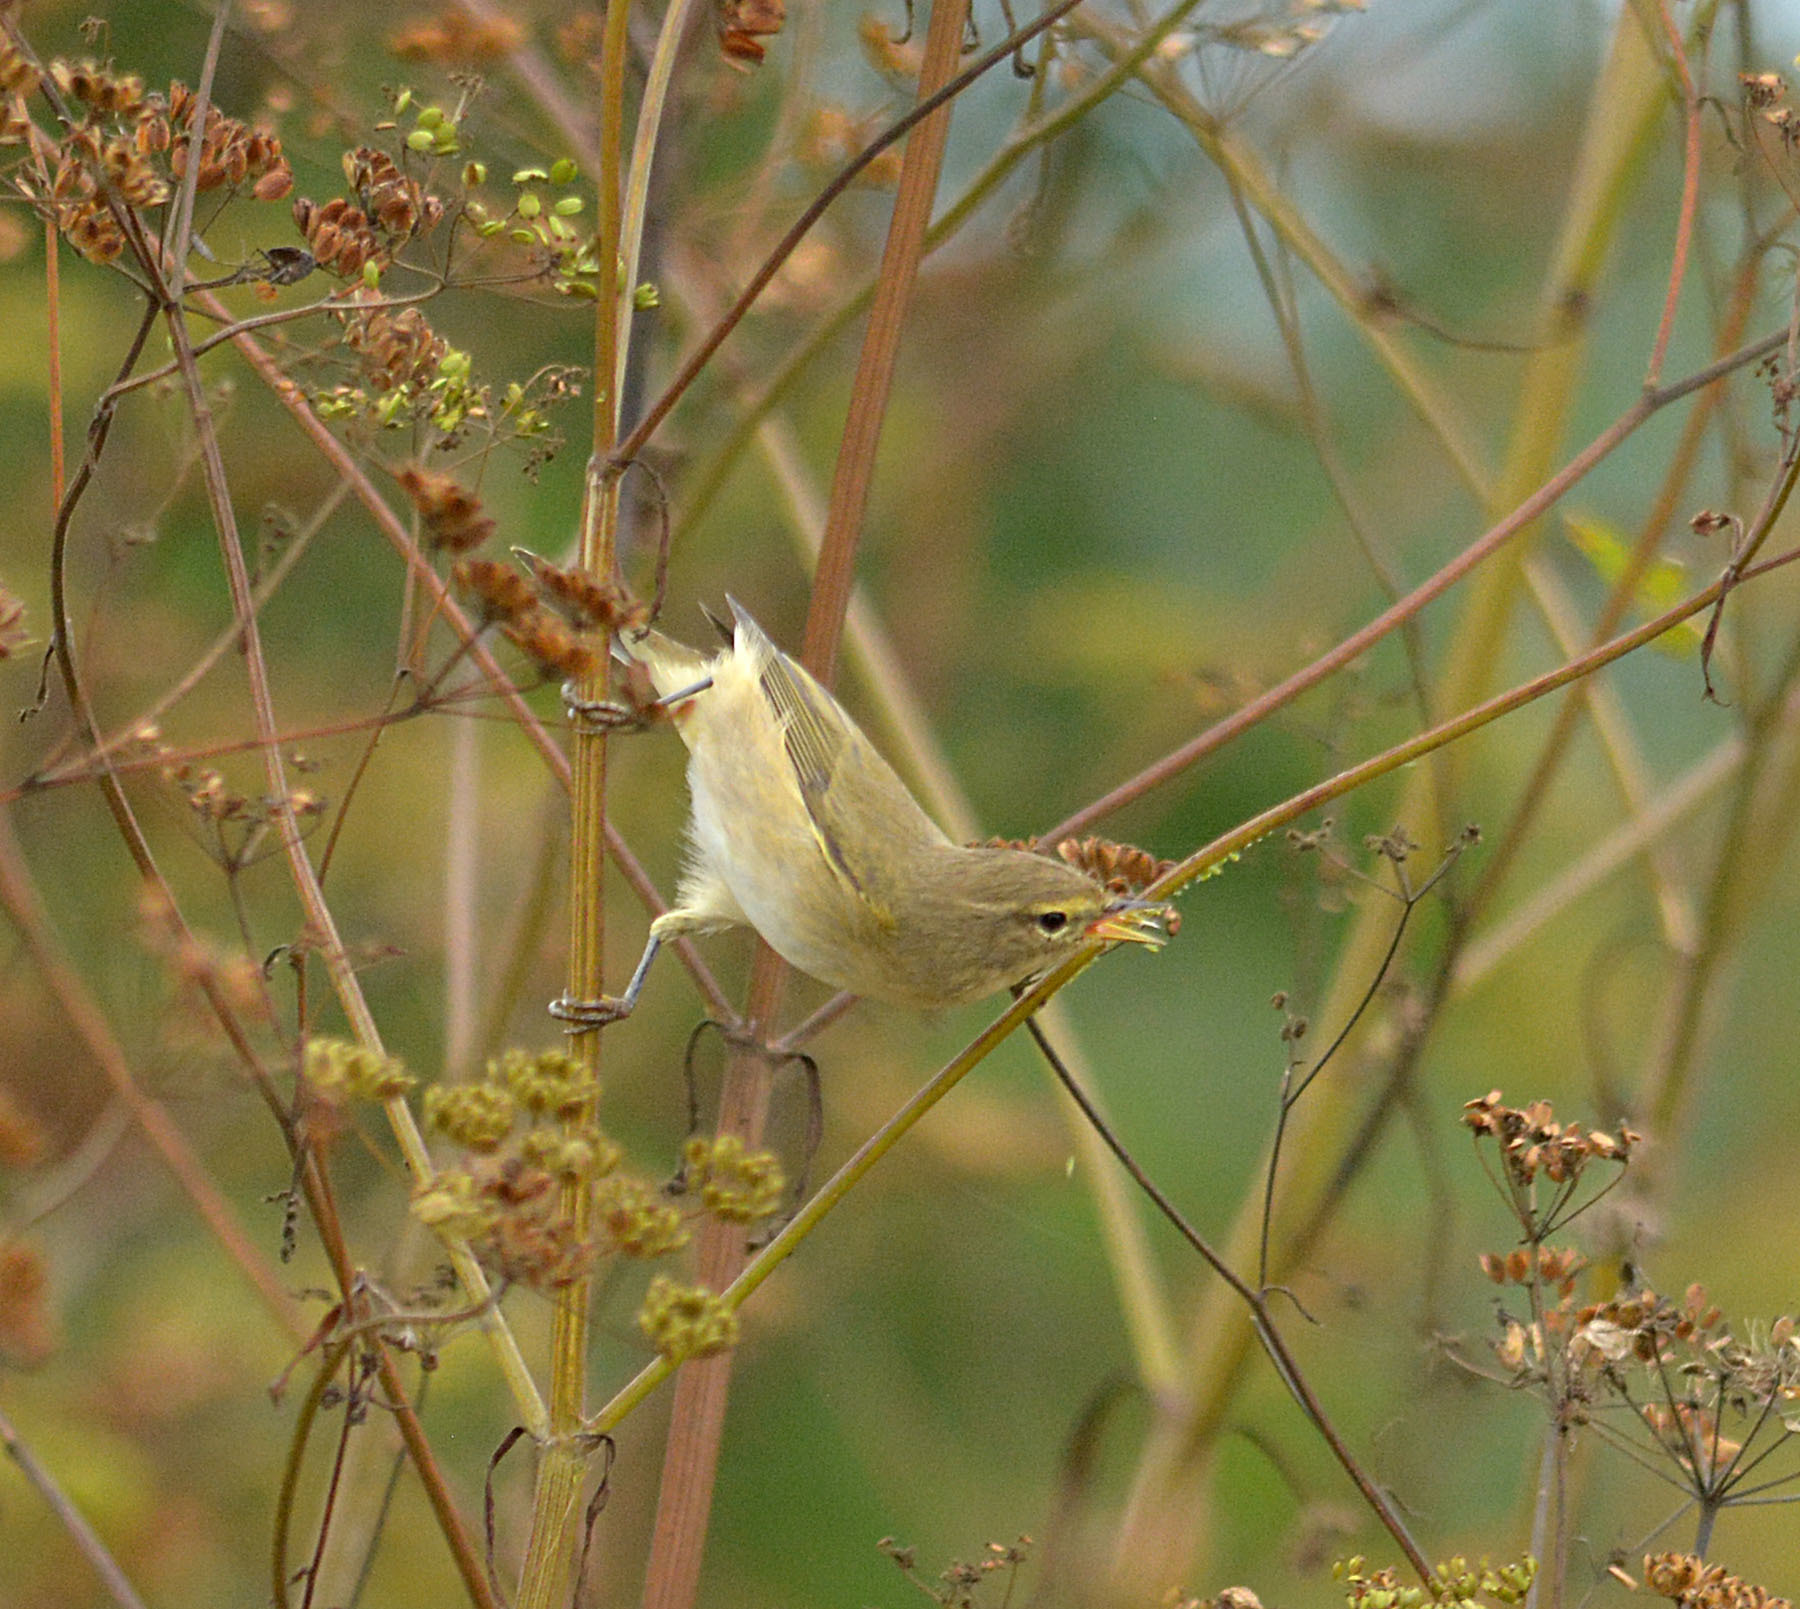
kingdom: Animalia
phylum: Chordata
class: Aves
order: Passeriformes
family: Phylloscopidae
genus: Phylloscopus
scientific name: Phylloscopus collybita
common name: Common chiffchaff
